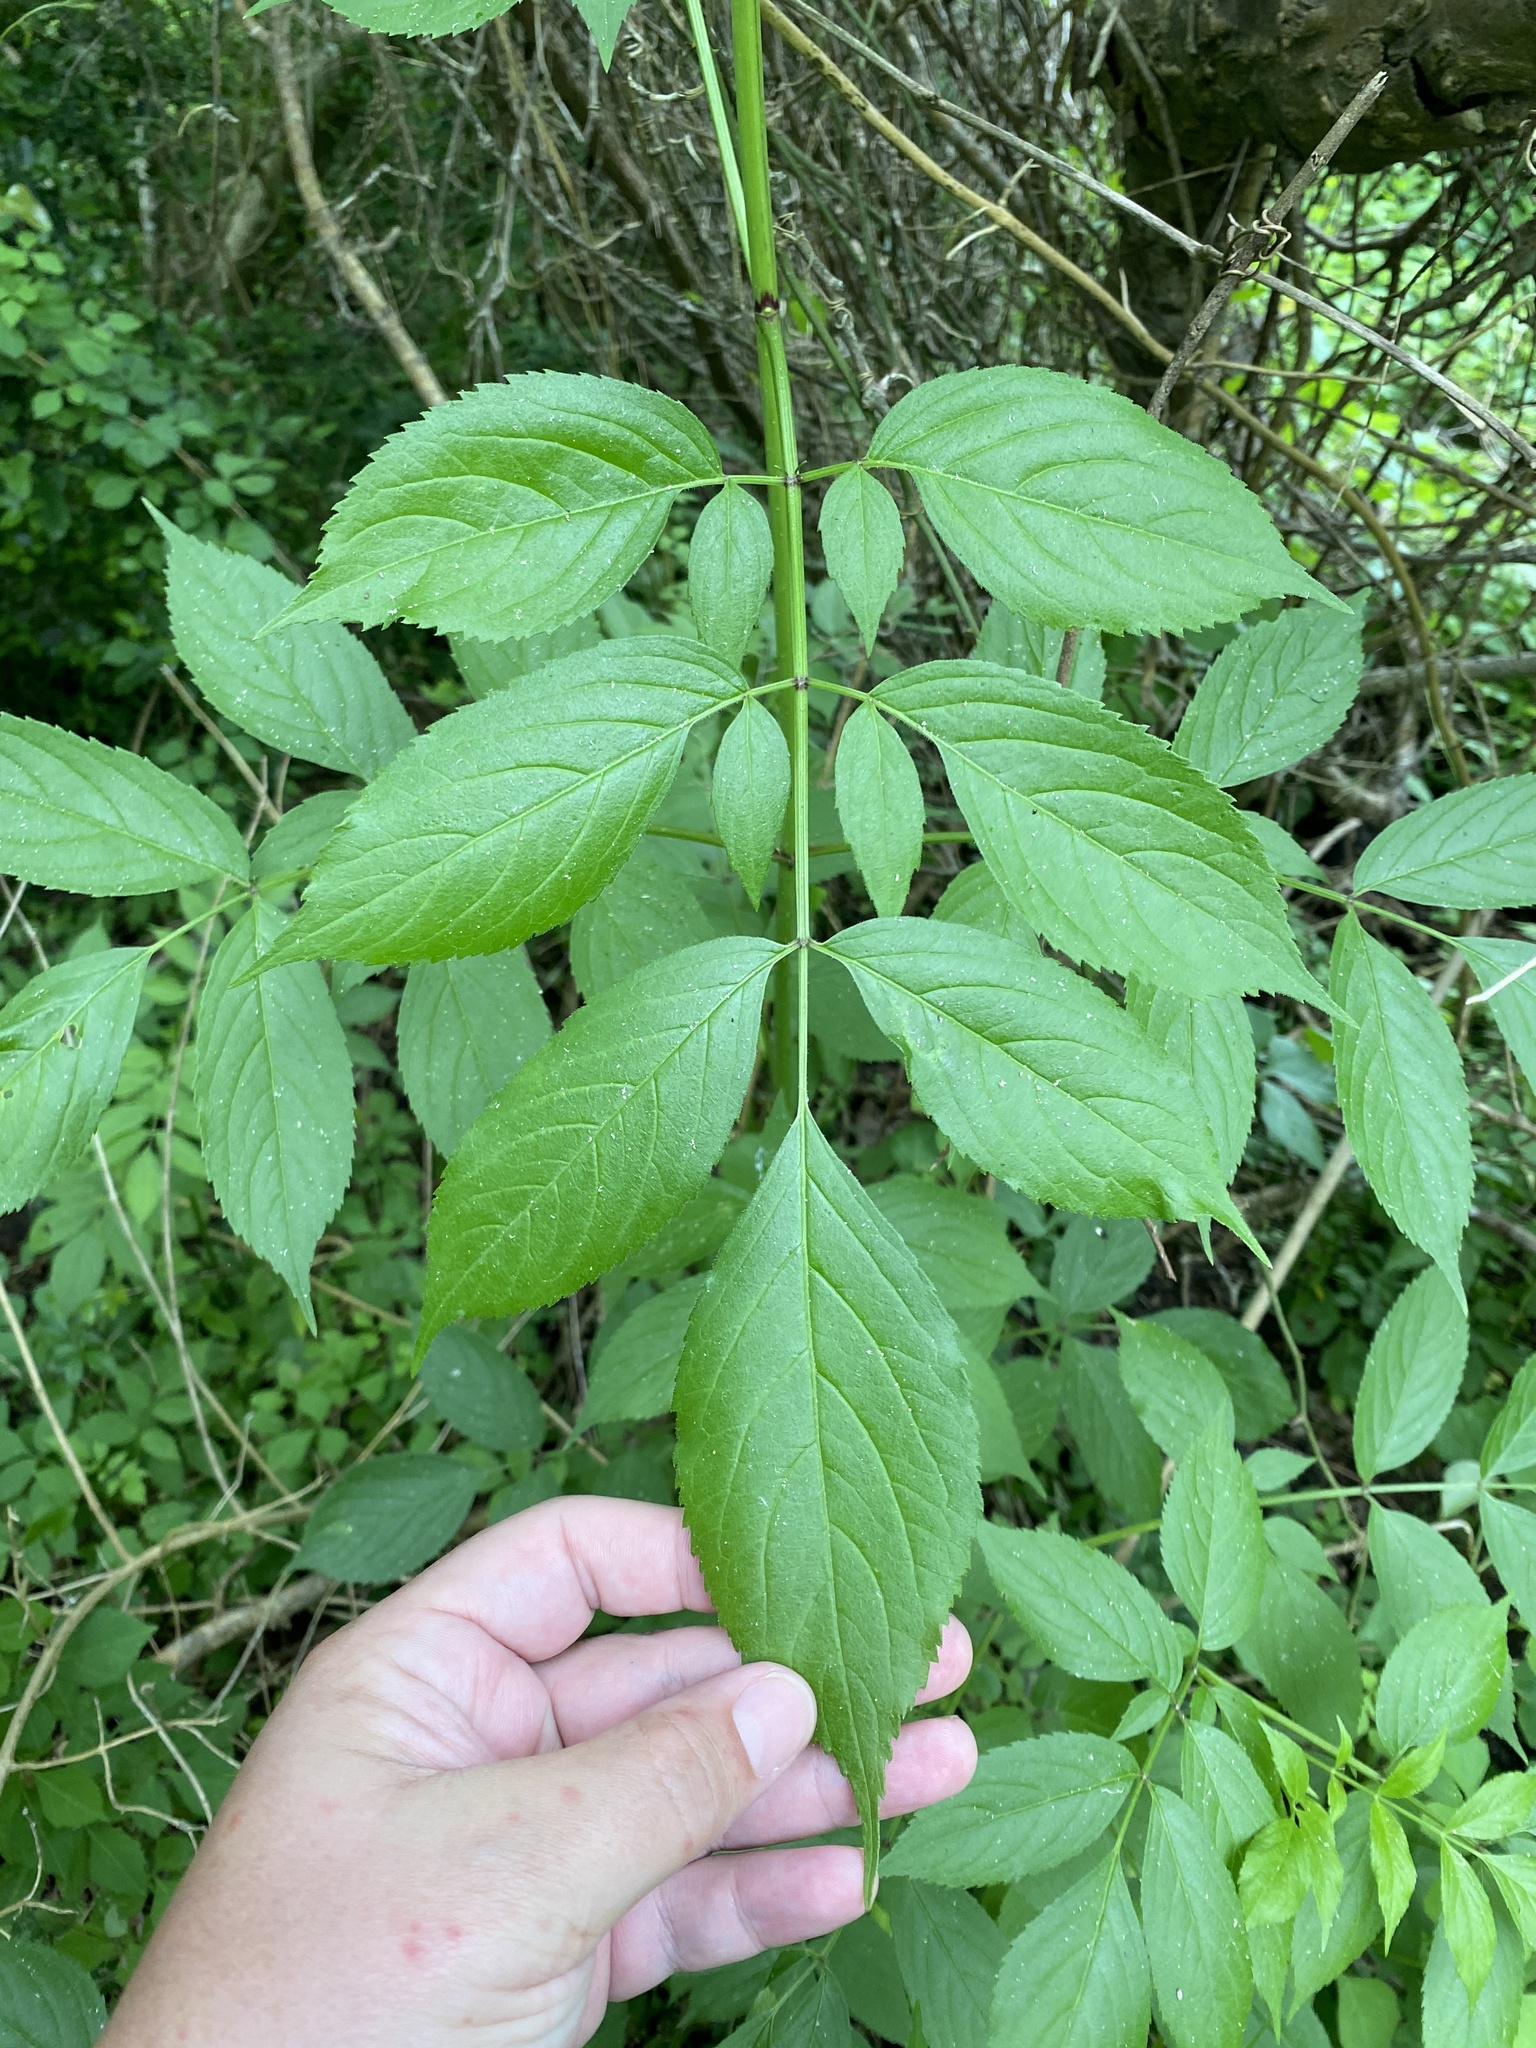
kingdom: Plantae
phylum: Tracheophyta
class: Magnoliopsida
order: Dipsacales
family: Viburnaceae
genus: Sambucus
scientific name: Sambucus canadensis
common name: American elder
